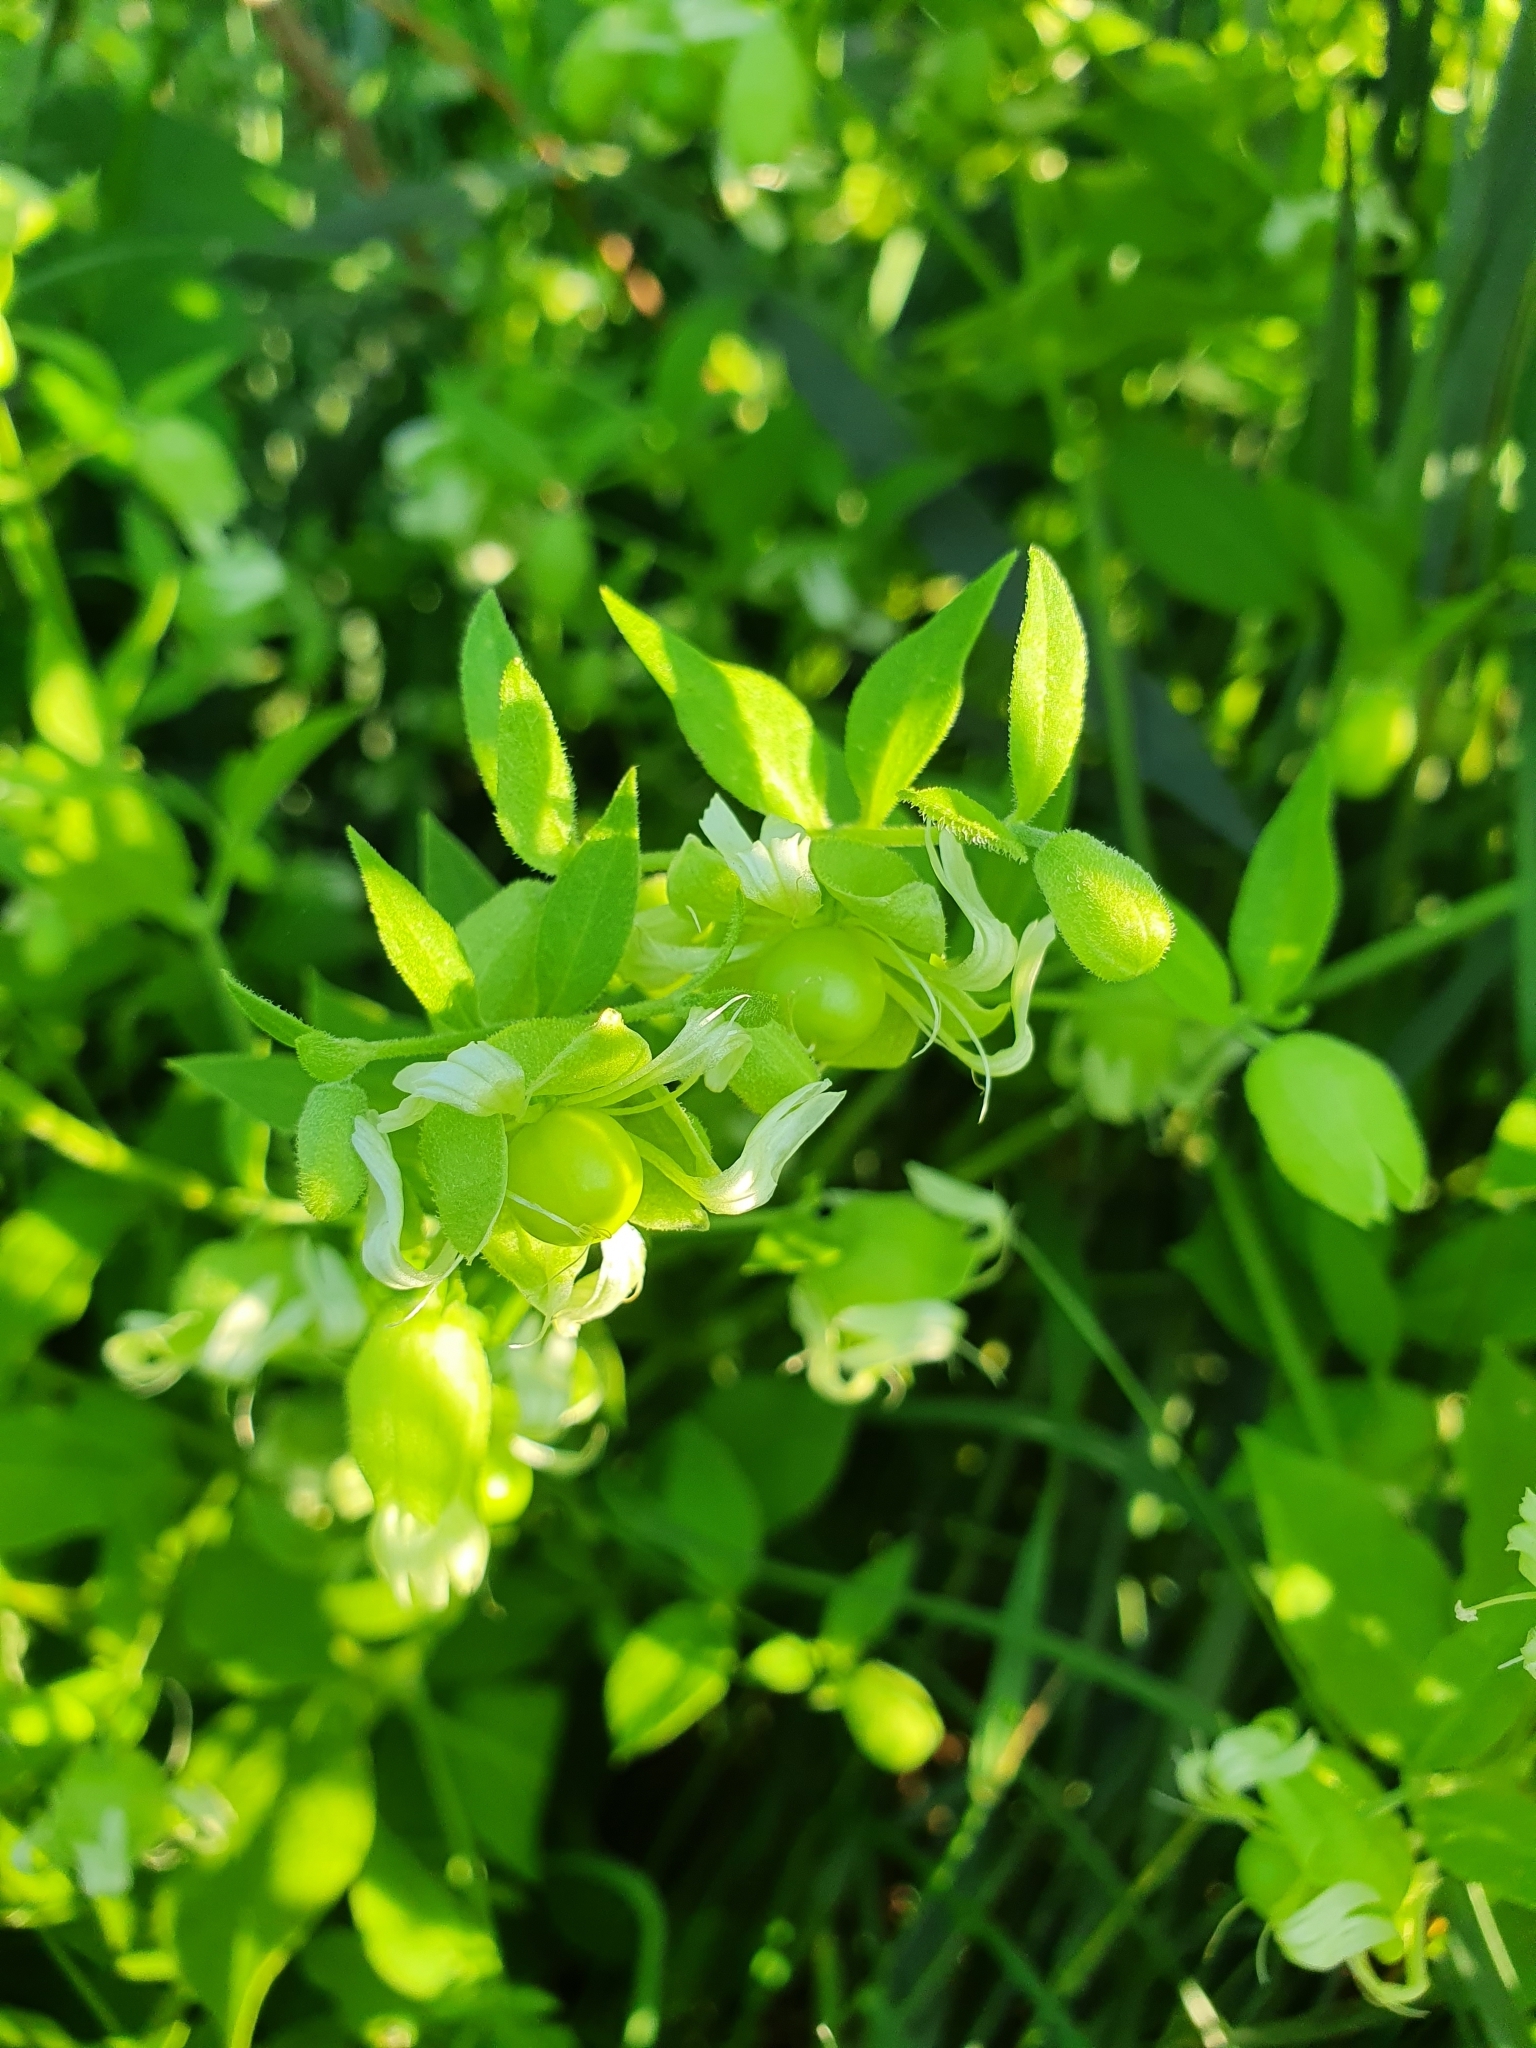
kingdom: Plantae
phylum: Tracheophyta
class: Magnoliopsida
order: Caryophyllales
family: Caryophyllaceae
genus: Silene
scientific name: Silene baccifera
